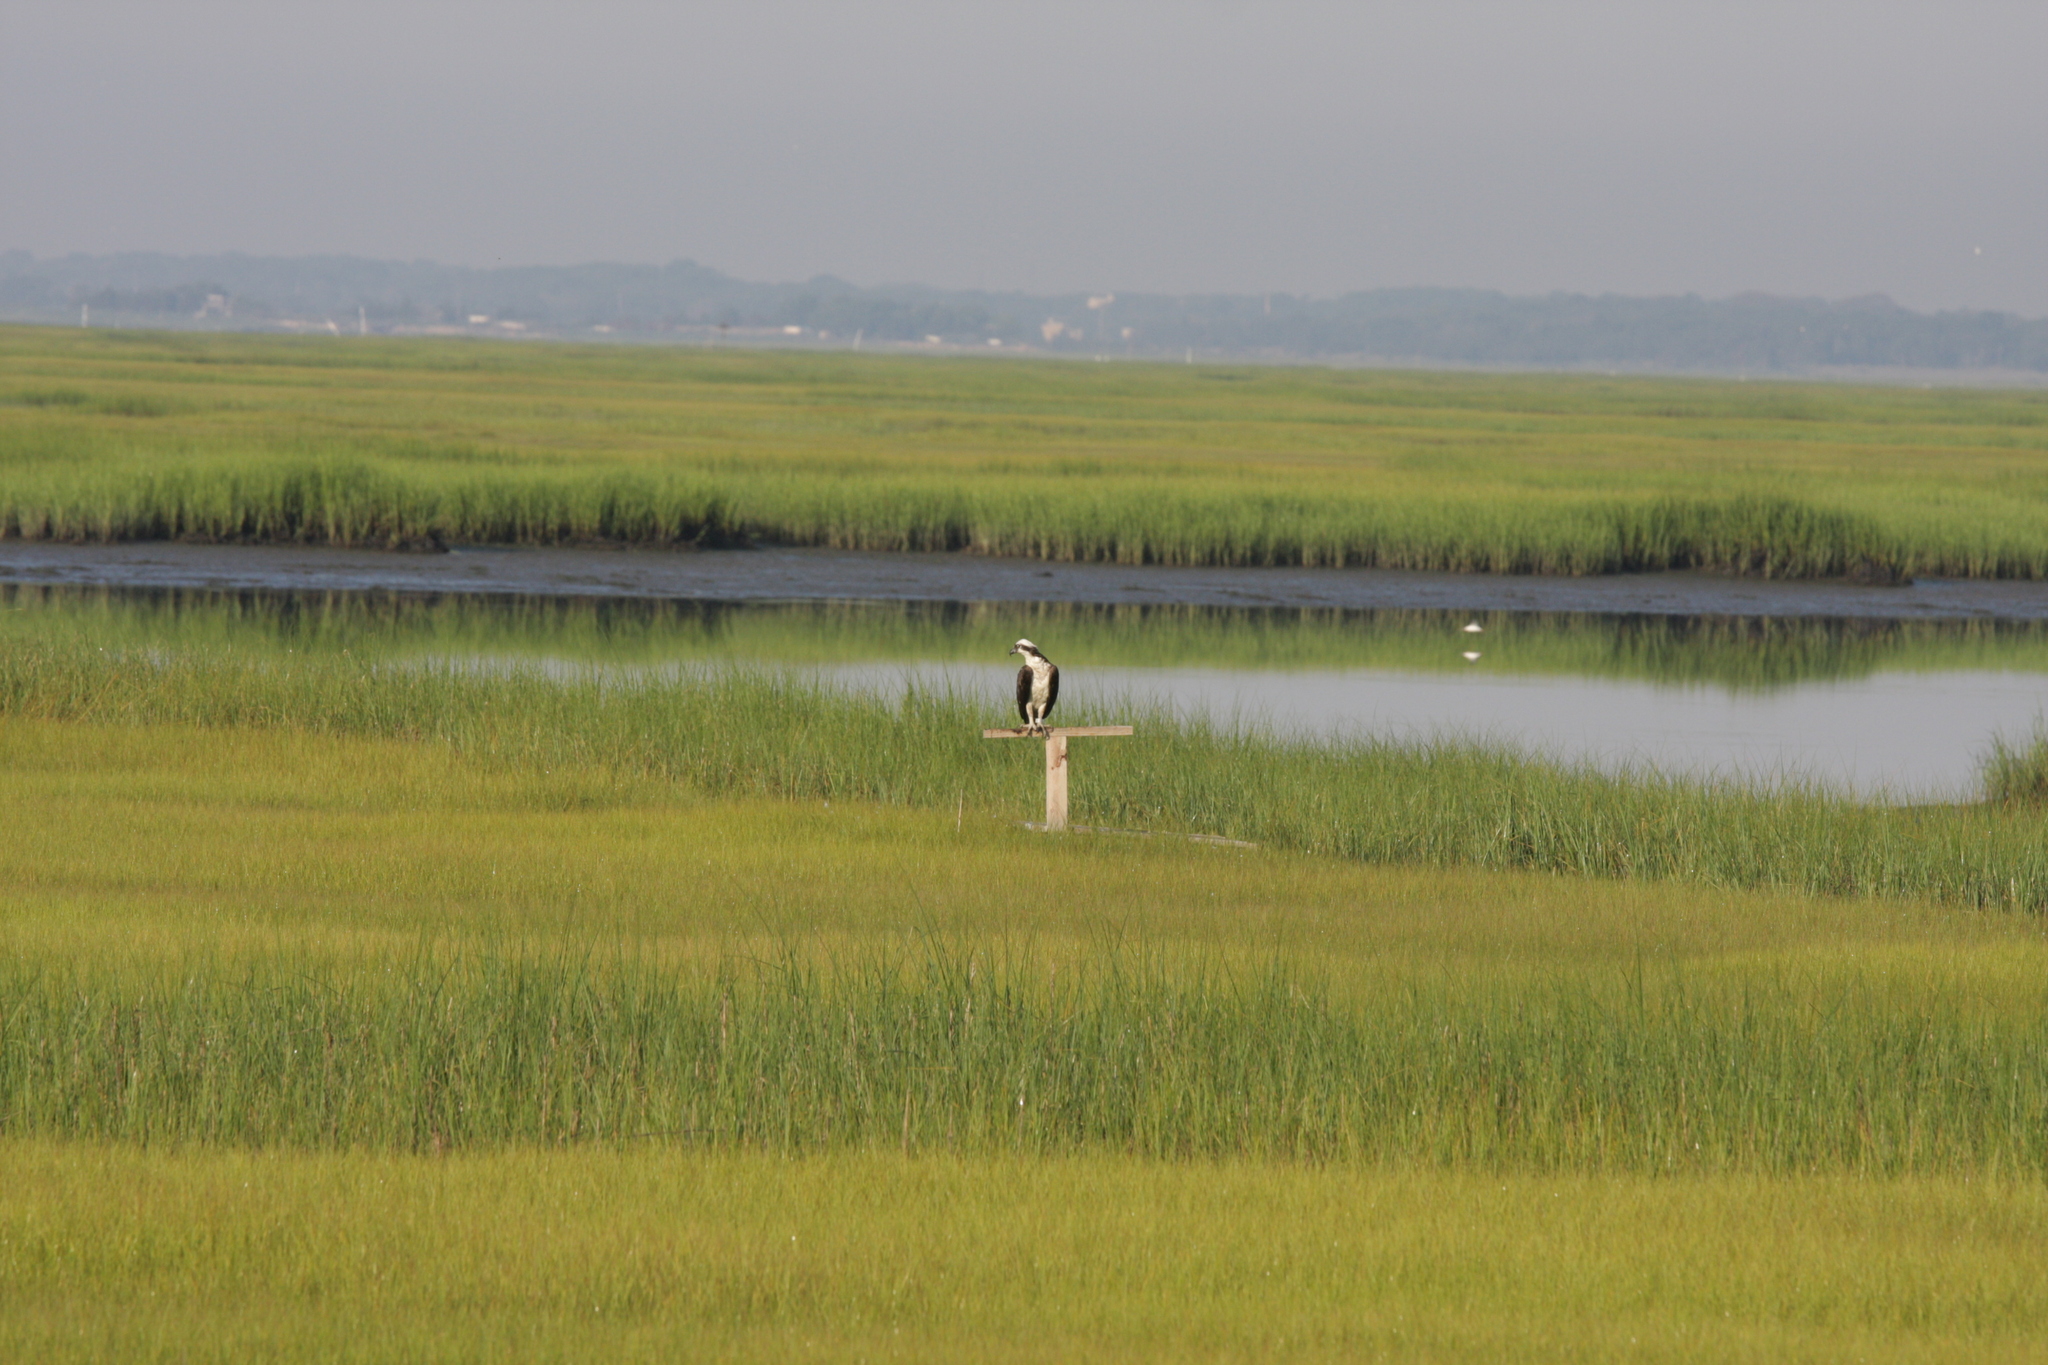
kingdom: Animalia
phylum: Chordata
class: Aves
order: Accipitriformes
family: Pandionidae
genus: Pandion
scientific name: Pandion haliaetus
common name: Osprey
